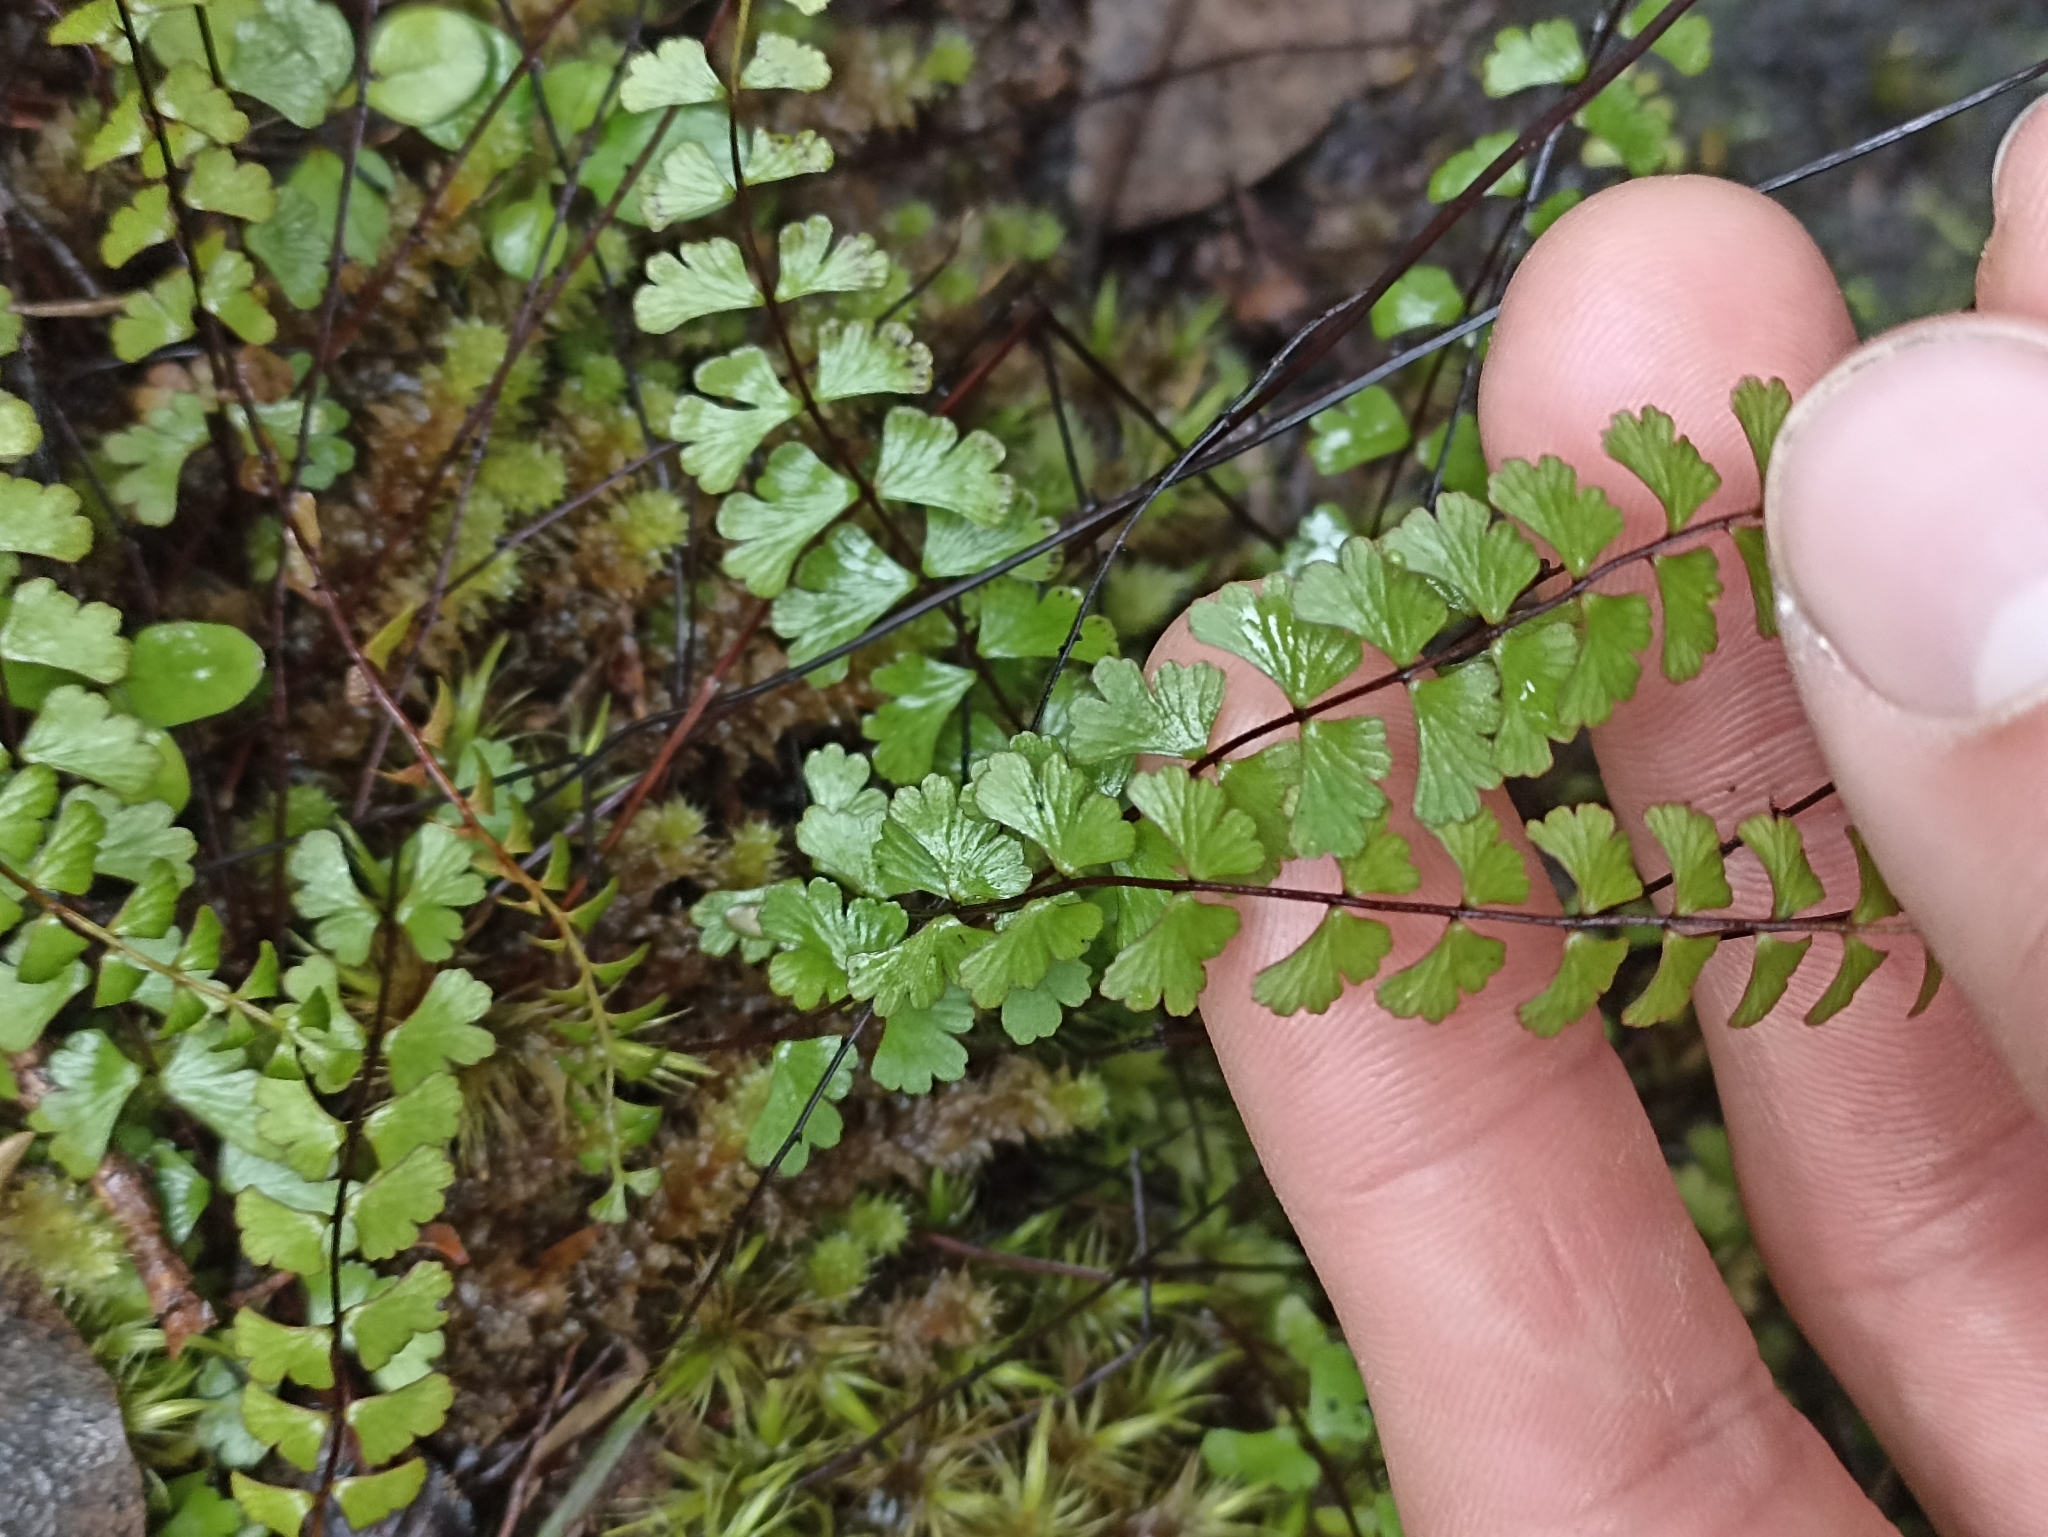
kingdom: Plantae
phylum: Tracheophyta
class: Polypodiopsida
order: Polypodiales
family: Lindsaeaceae
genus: Lindsaea
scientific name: Lindsaea linearis
